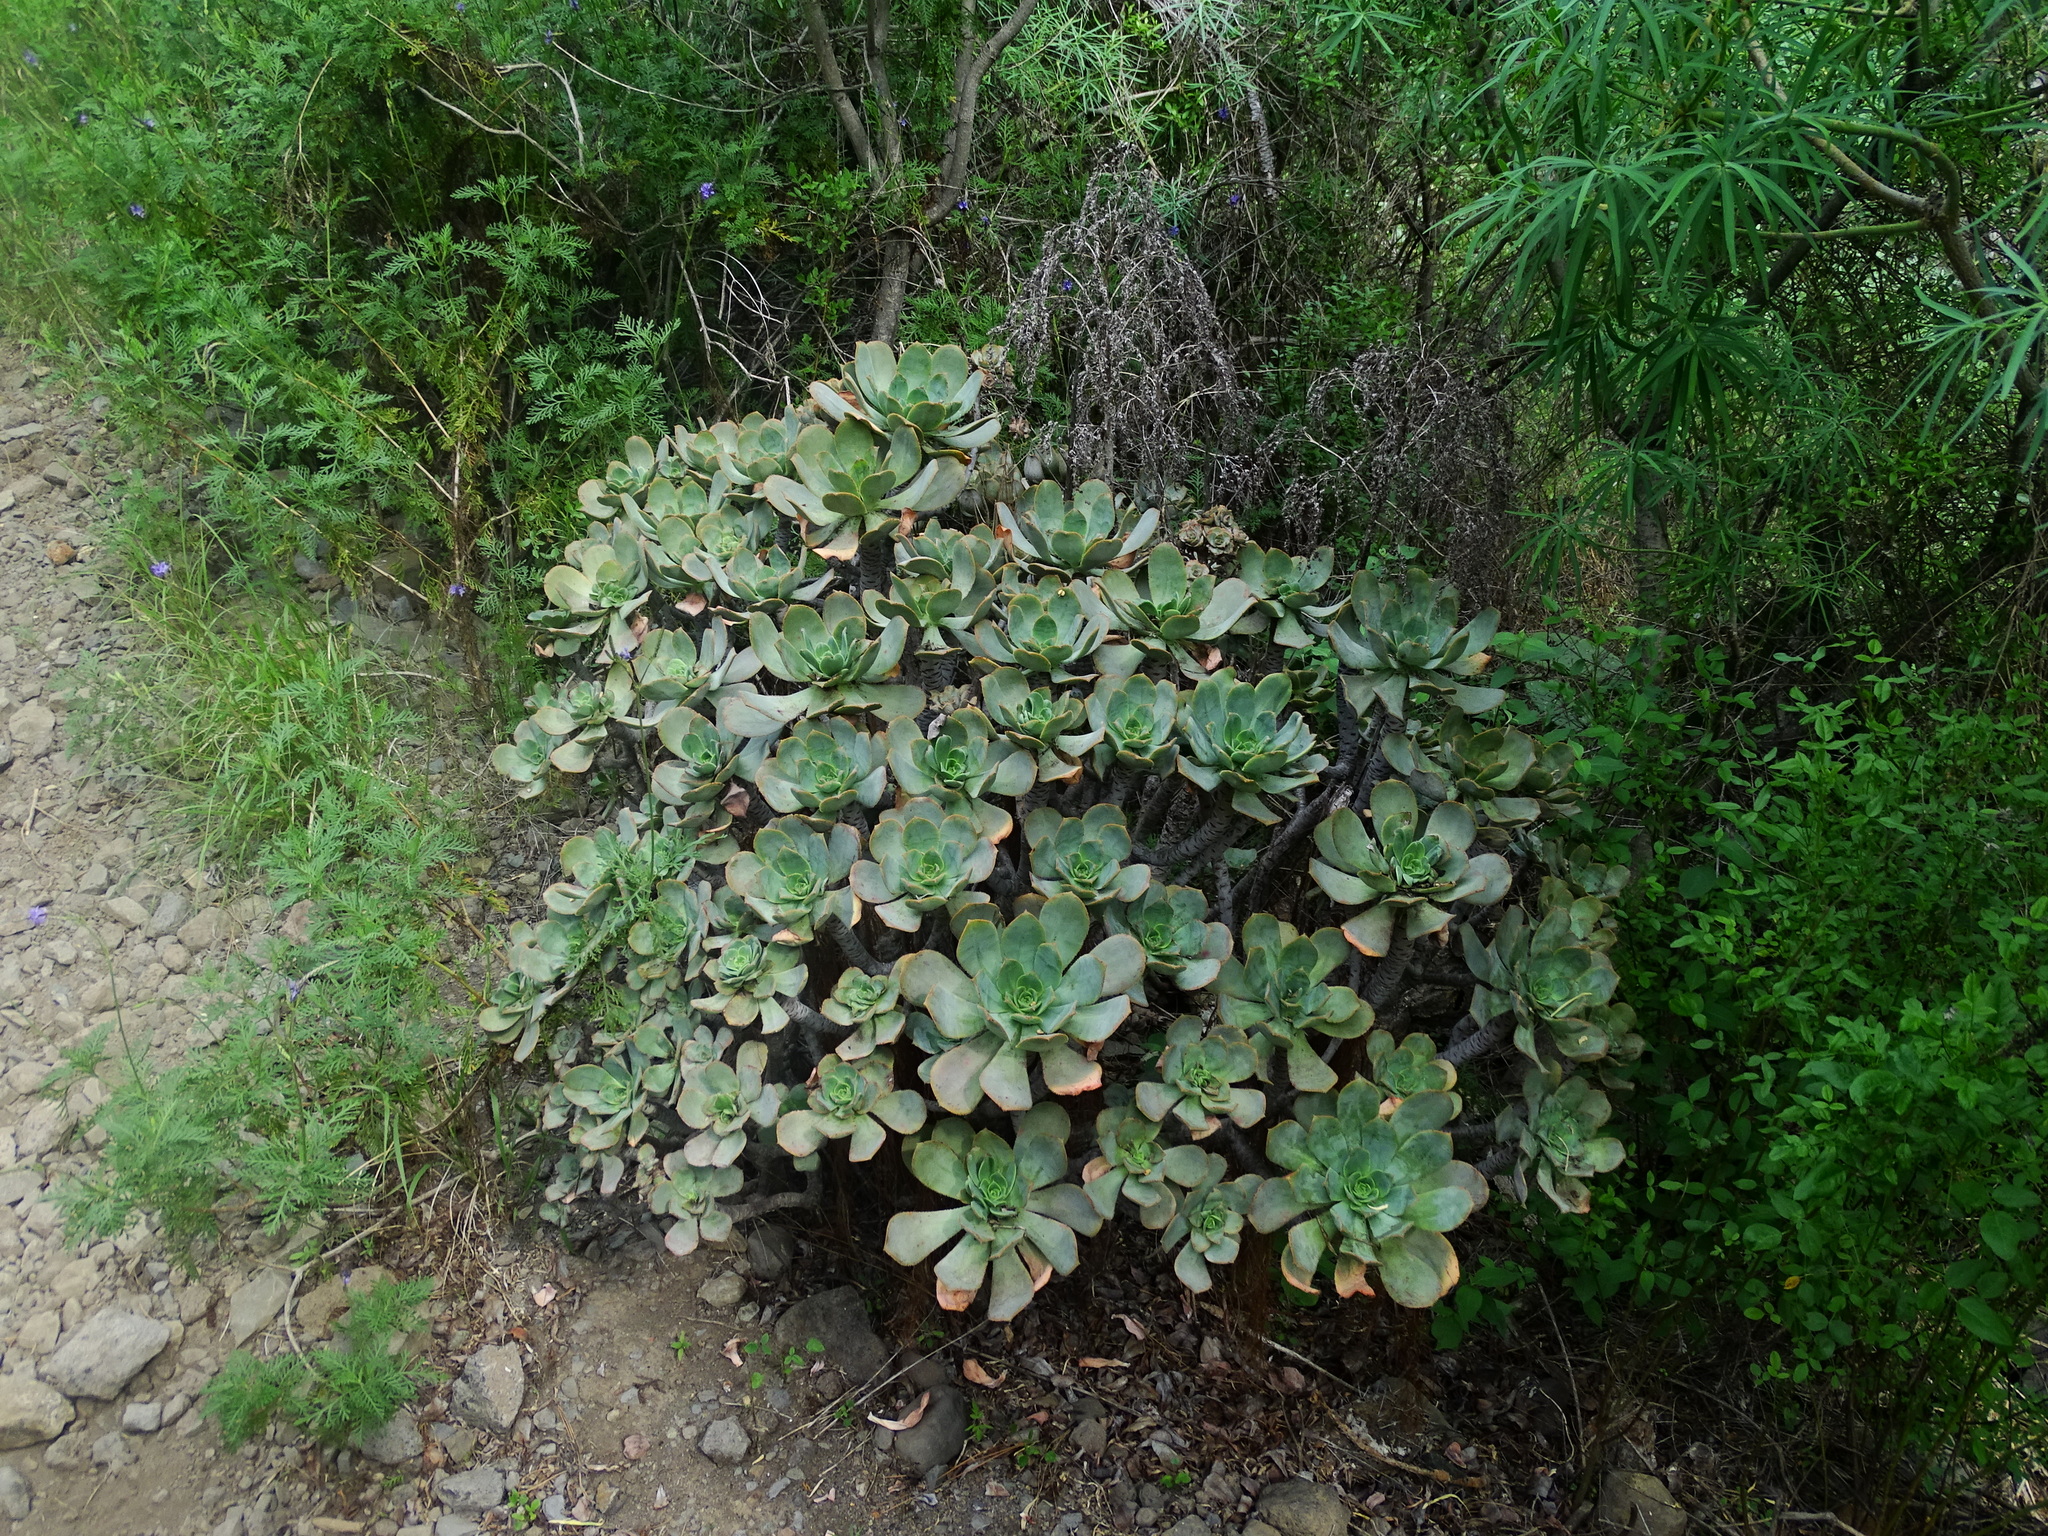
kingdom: Plantae
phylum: Tracheophyta
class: Magnoliopsida
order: Saxifragales
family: Crassulaceae
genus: Aeonium
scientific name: Aeonium davidbramwellii
